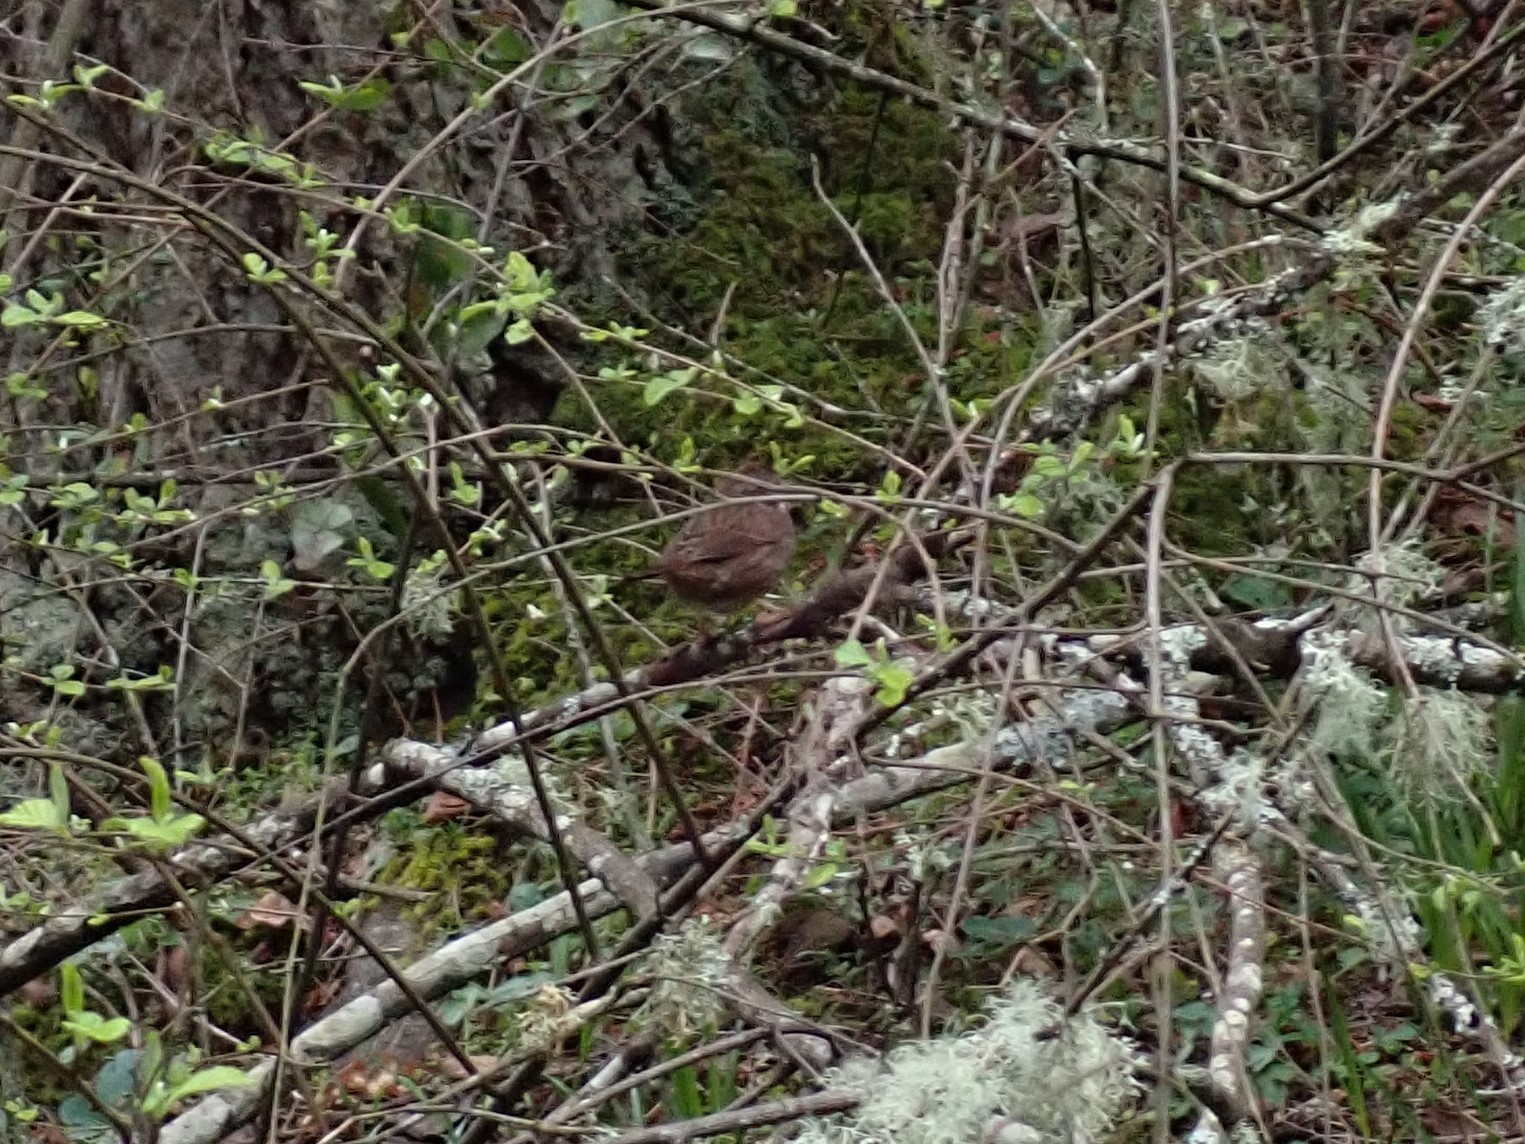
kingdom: Animalia
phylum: Chordata
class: Aves
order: Passeriformes
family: Passerellidae
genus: Melospiza
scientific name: Melospiza melodia
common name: Song sparrow
